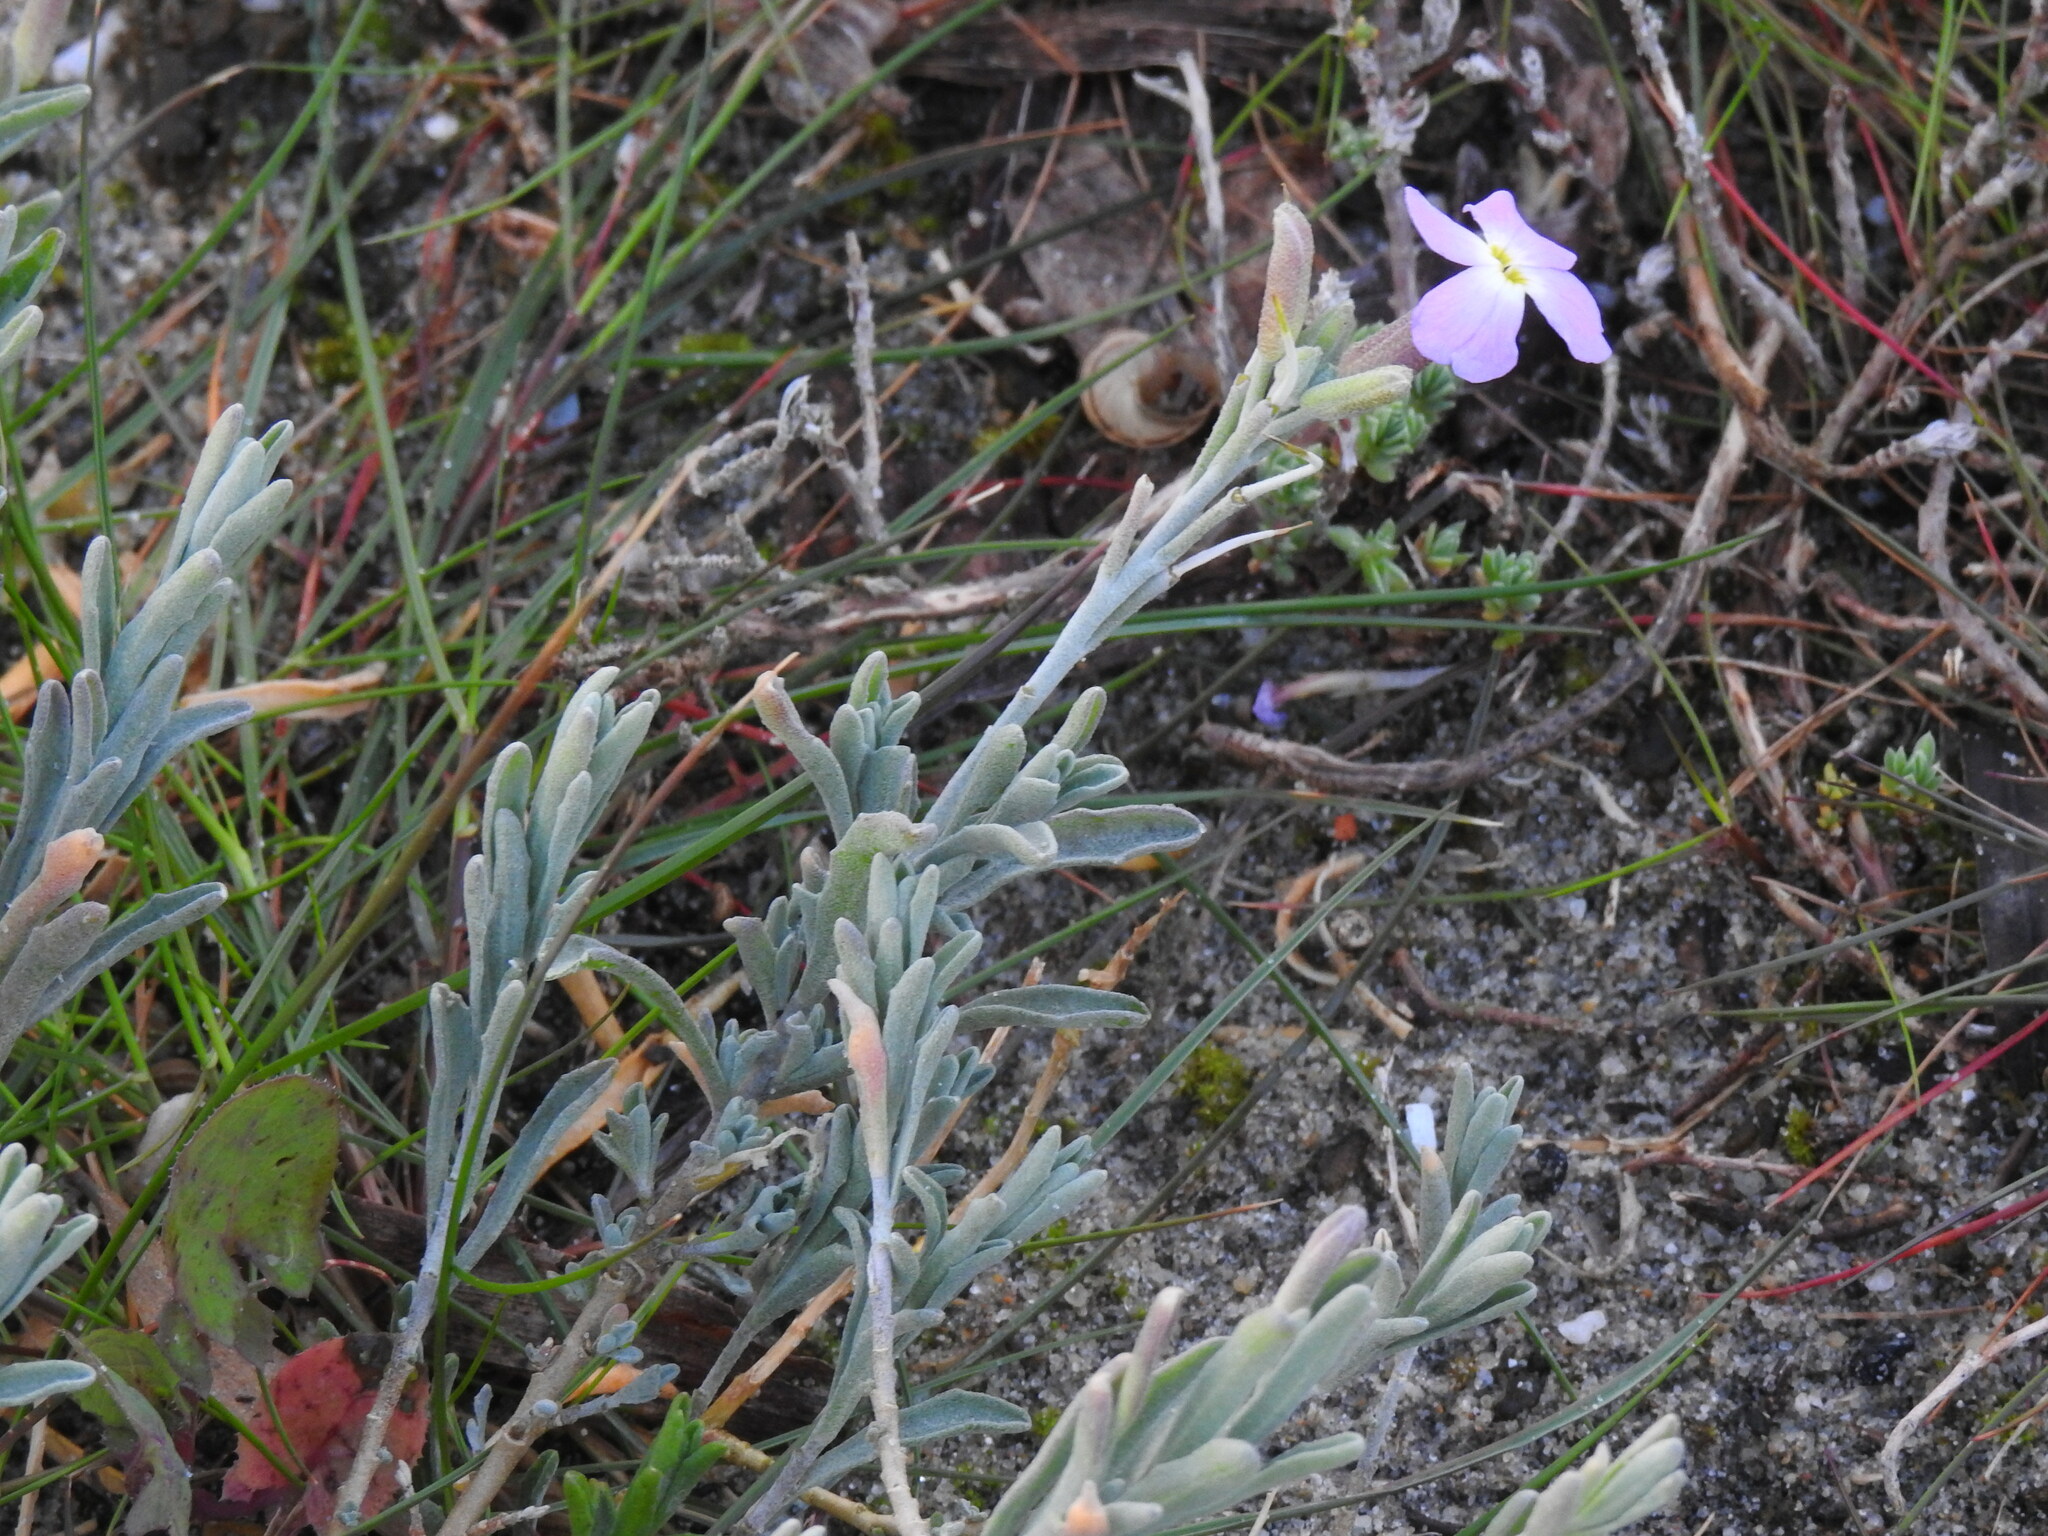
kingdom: Plantae
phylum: Tracheophyta
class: Magnoliopsida
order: Brassicales
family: Brassicaceae
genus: Marcuskochia
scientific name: Marcuskochia littorea
